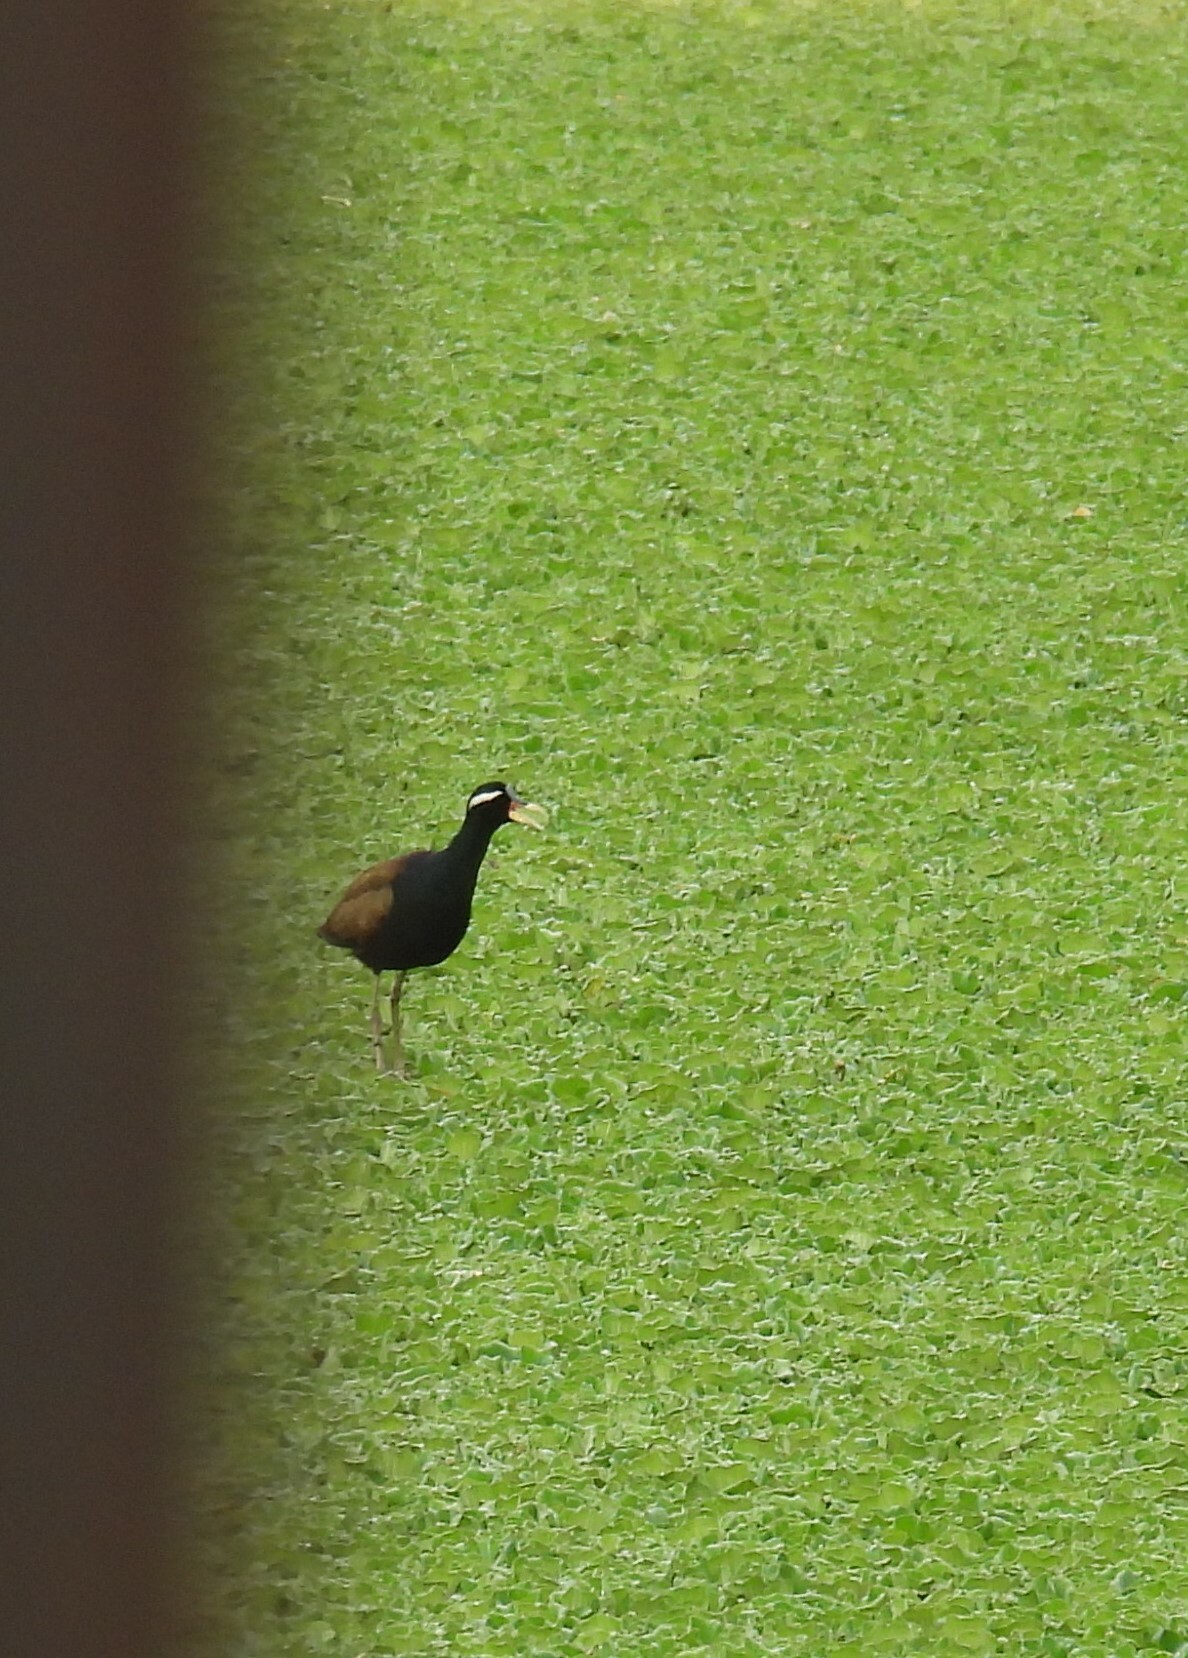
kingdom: Animalia
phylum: Chordata
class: Aves
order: Charadriiformes
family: Jacanidae
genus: Metopidius
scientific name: Metopidius indicus
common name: Bronze-winged jacana
